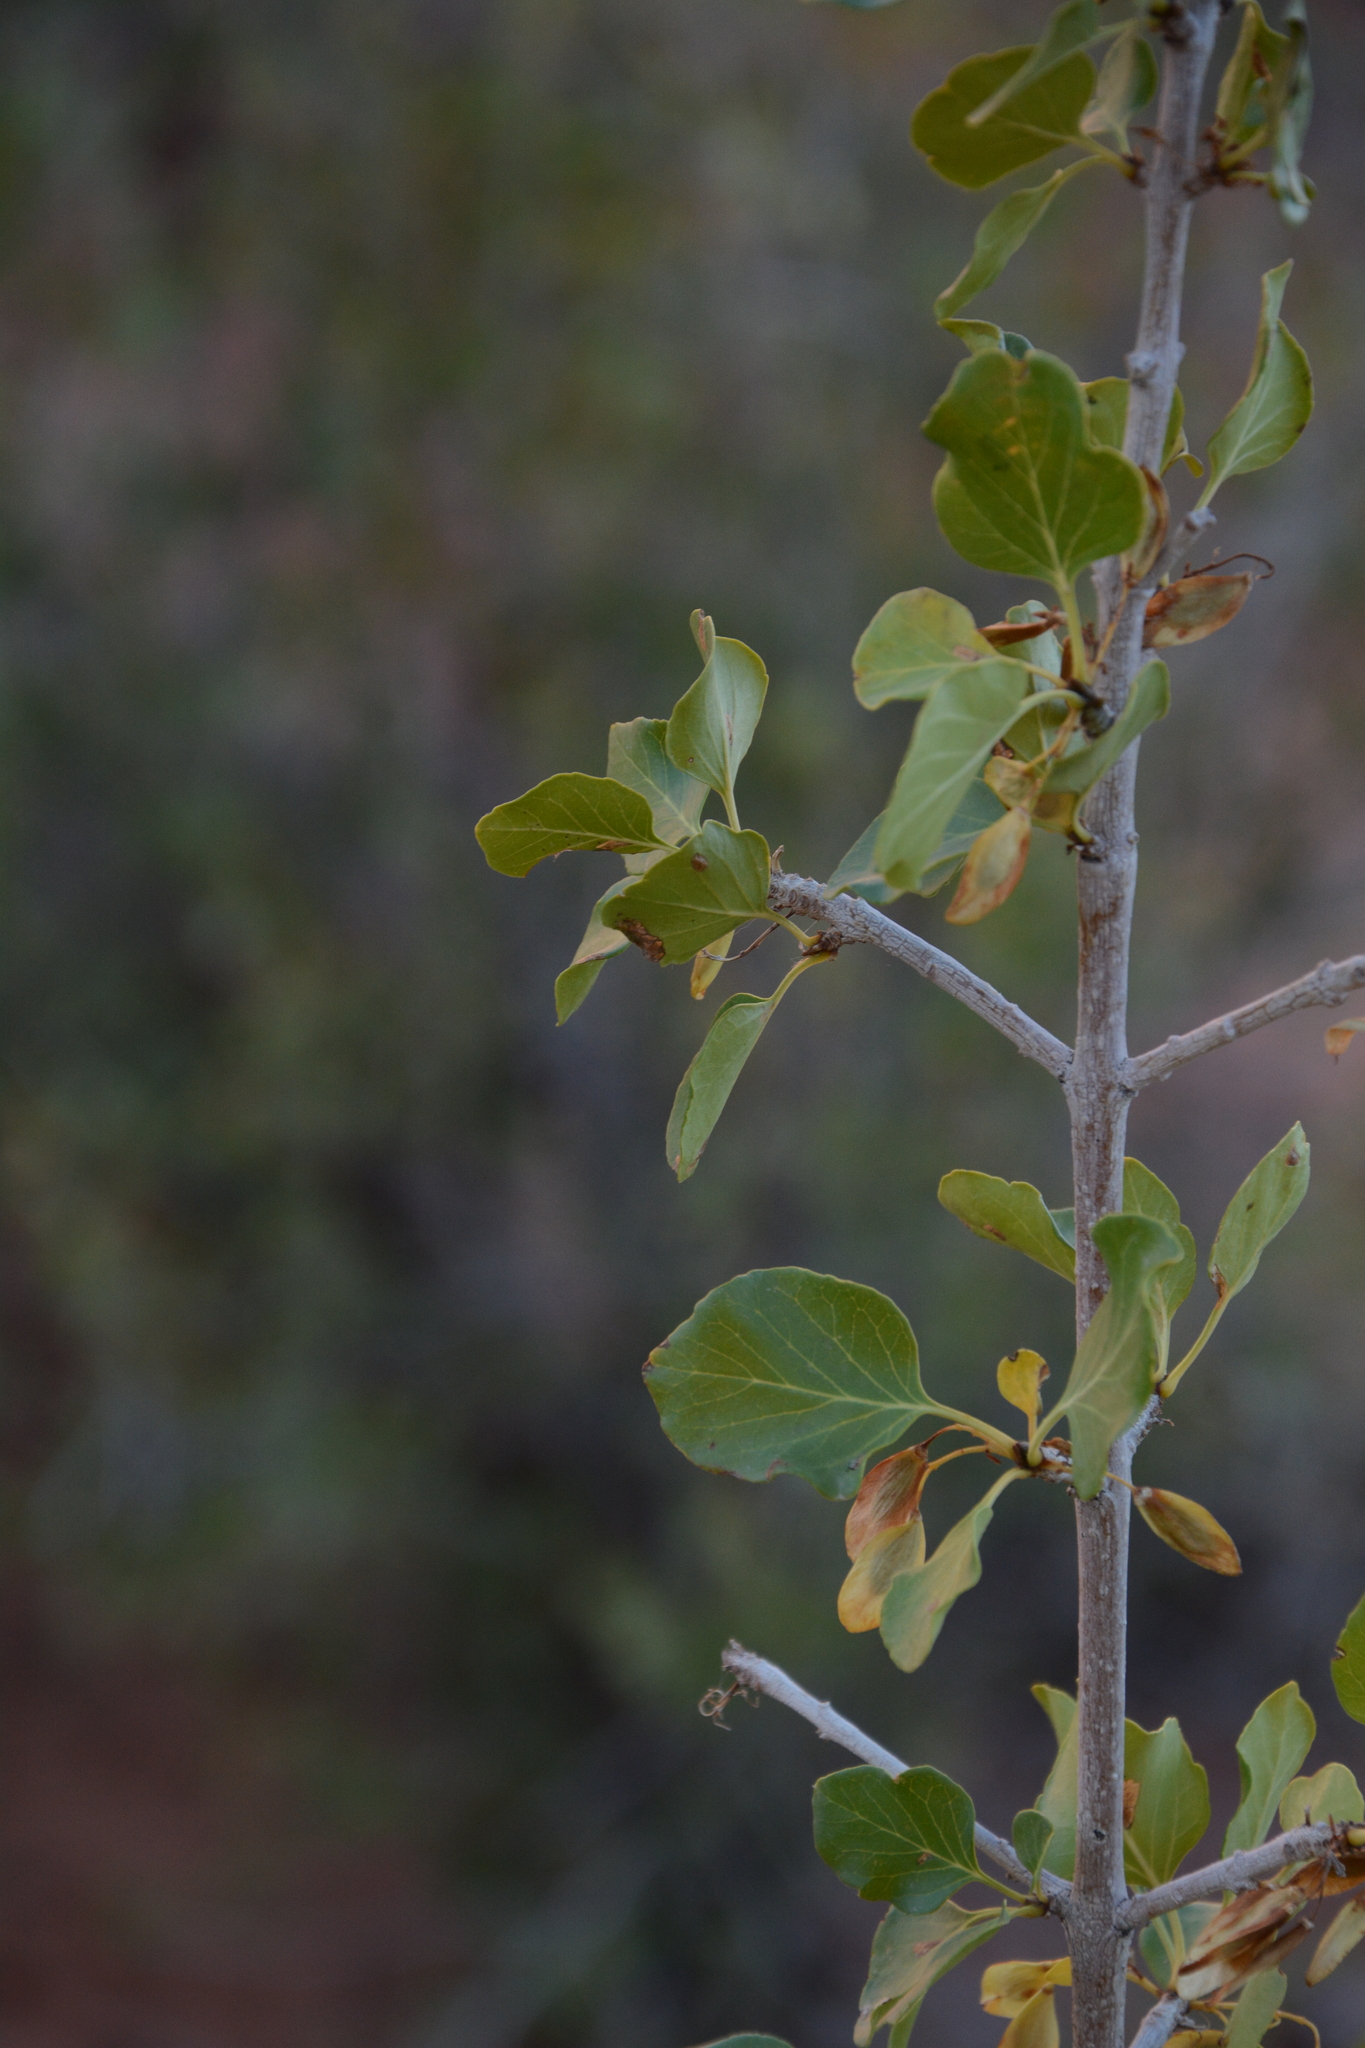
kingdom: Plantae
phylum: Tracheophyta
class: Magnoliopsida
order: Lamiales
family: Oleaceae
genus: Fraxinus
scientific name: Fraxinus anomala
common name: Utah ash
